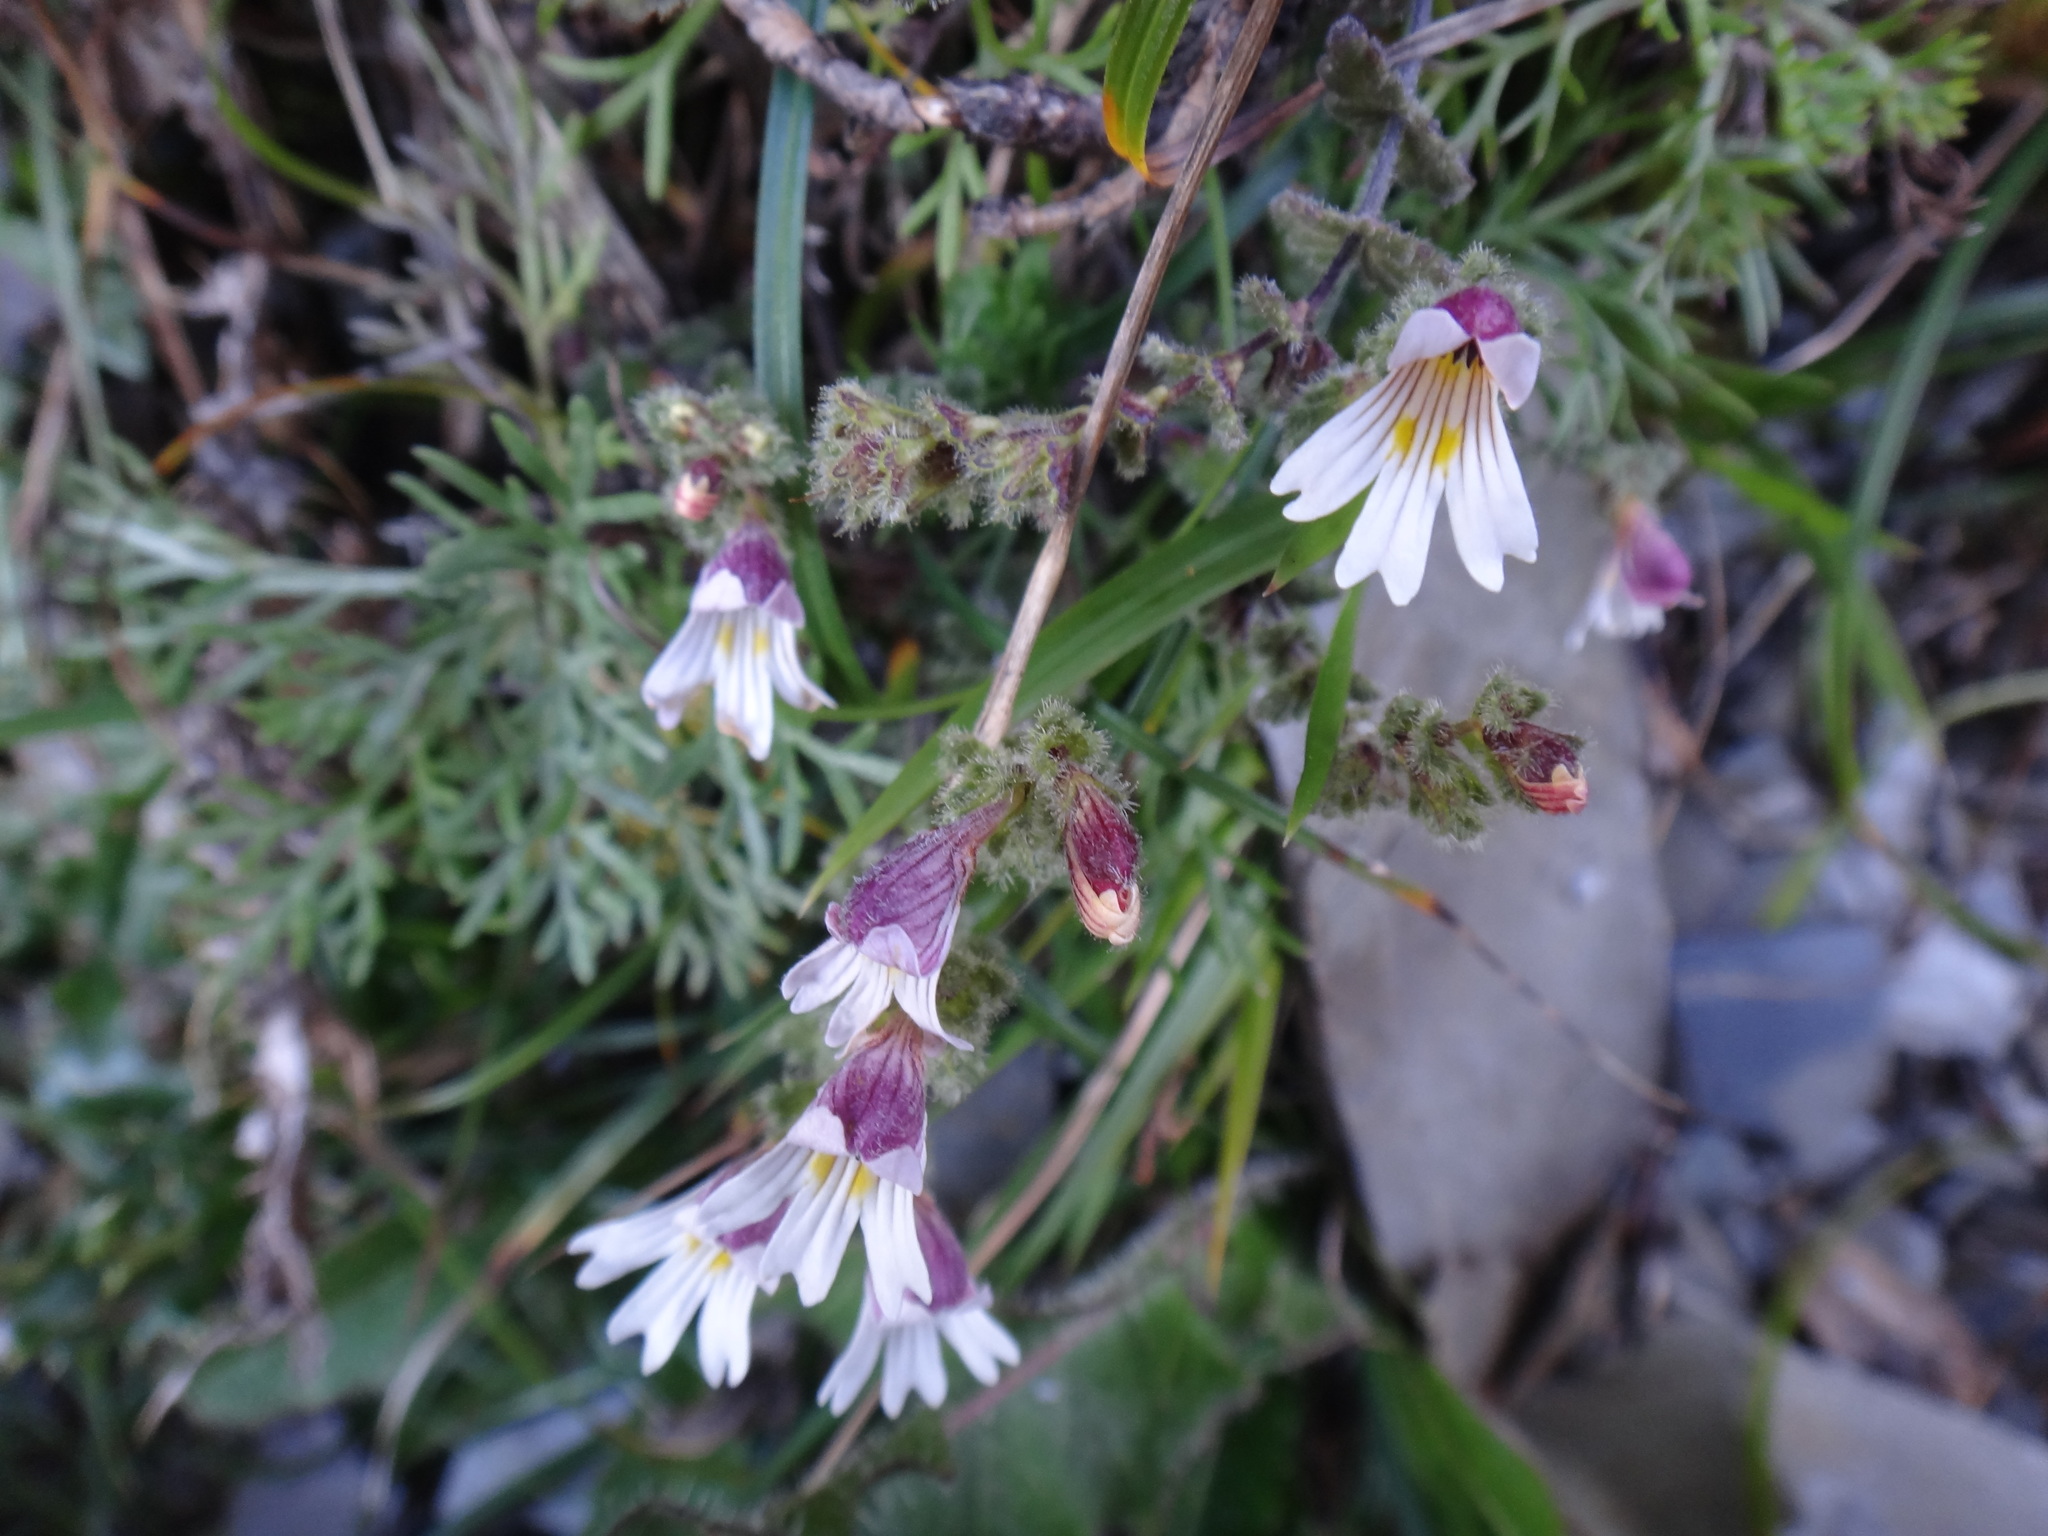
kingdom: Plantae
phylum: Tracheophyta
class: Magnoliopsida
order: Lamiales
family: Orobanchaceae
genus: Euphrasia
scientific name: Euphrasia transmorrisonensis
